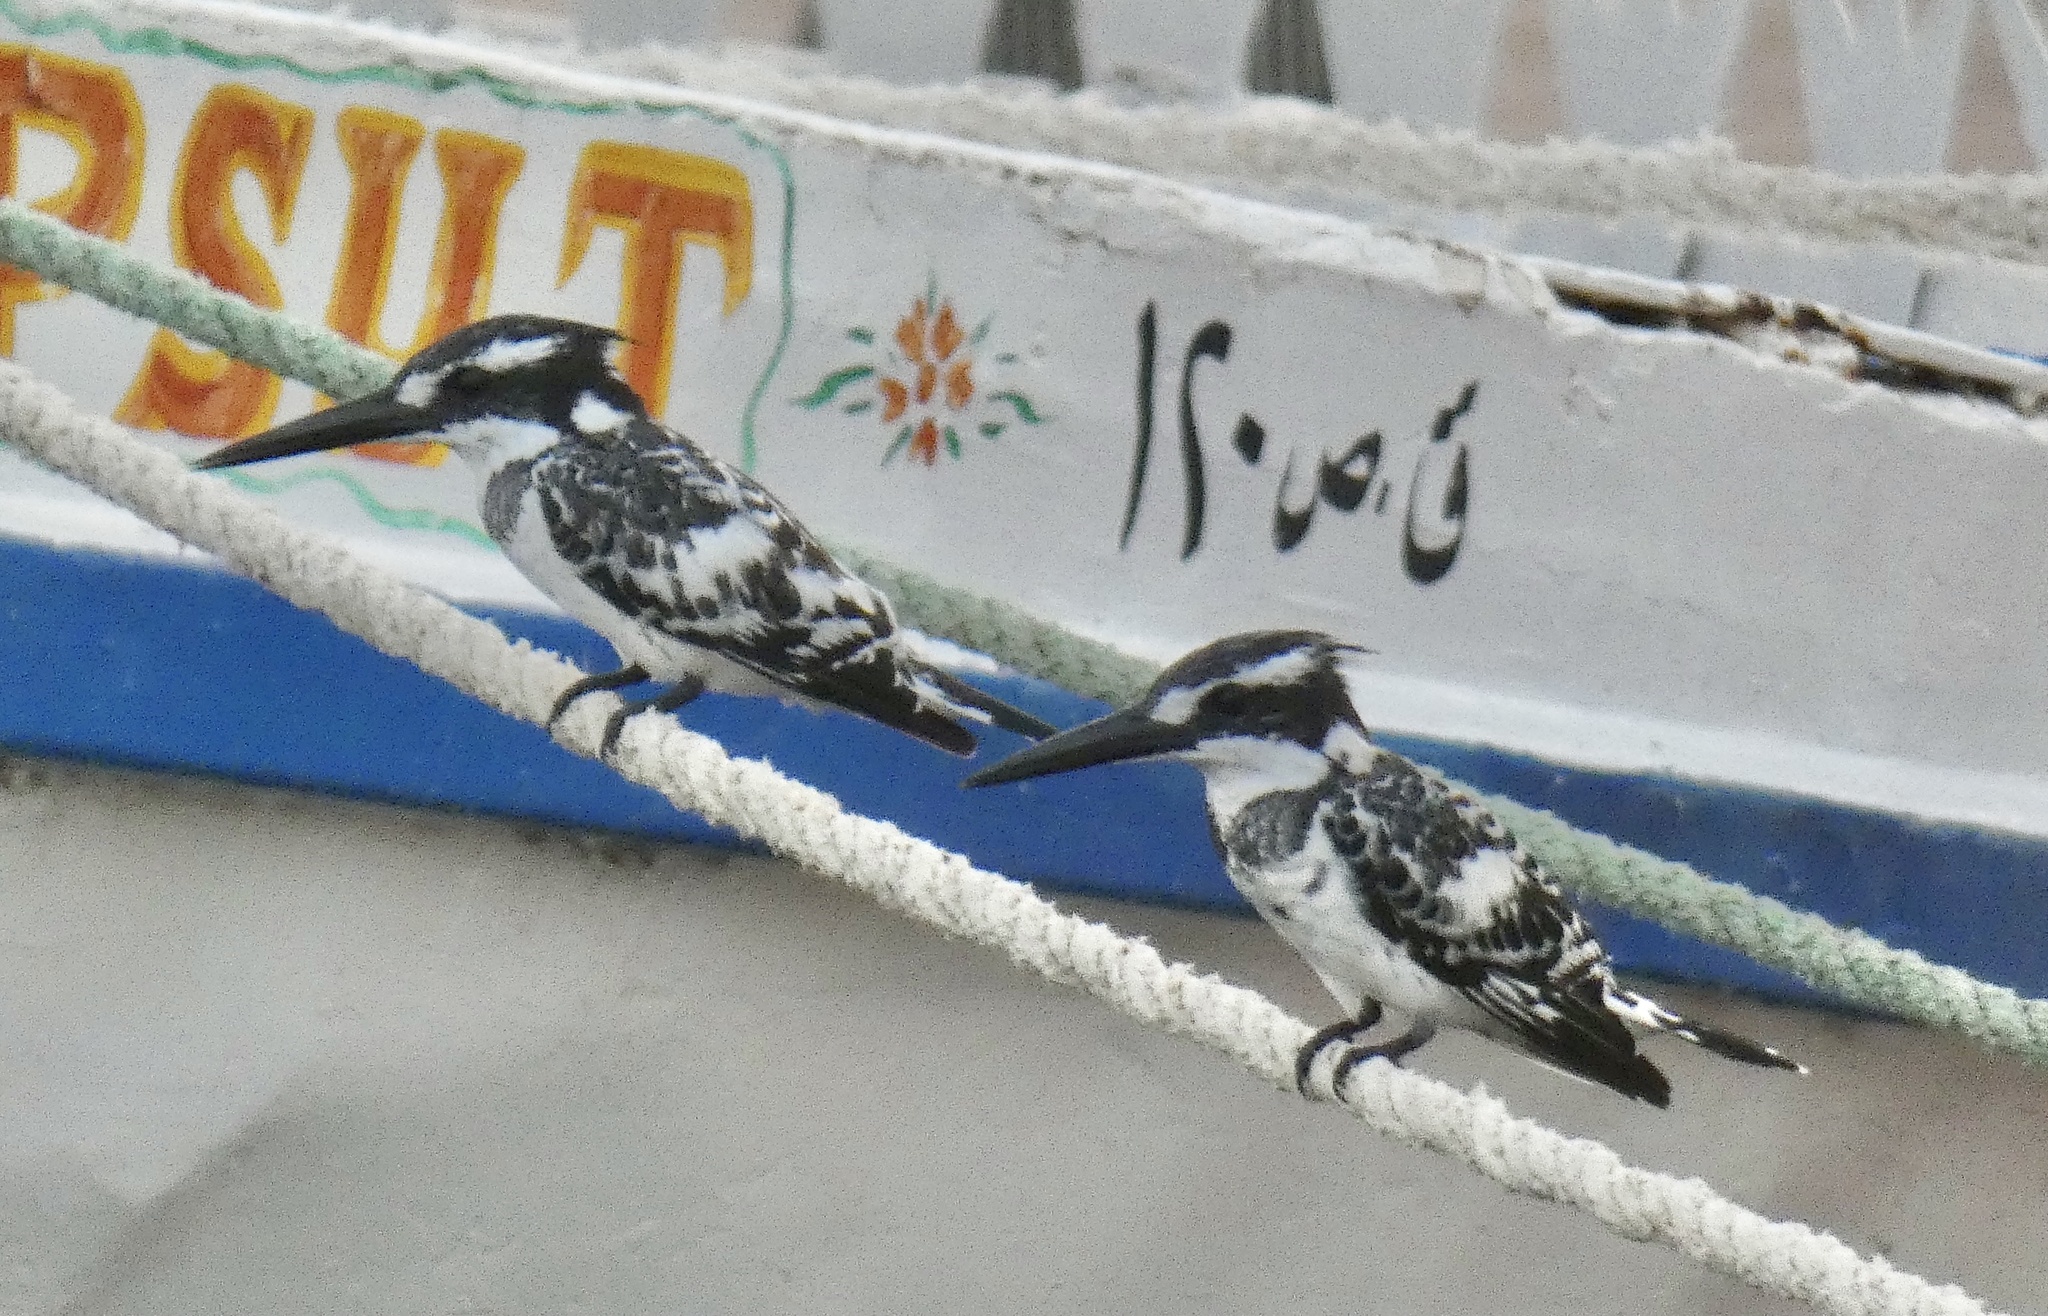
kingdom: Animalia
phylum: Chordata
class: Aves
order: Coraciiformes
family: Alcedinidae
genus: Ceryle
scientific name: Ceryle rudis
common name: Pied kingfisher
